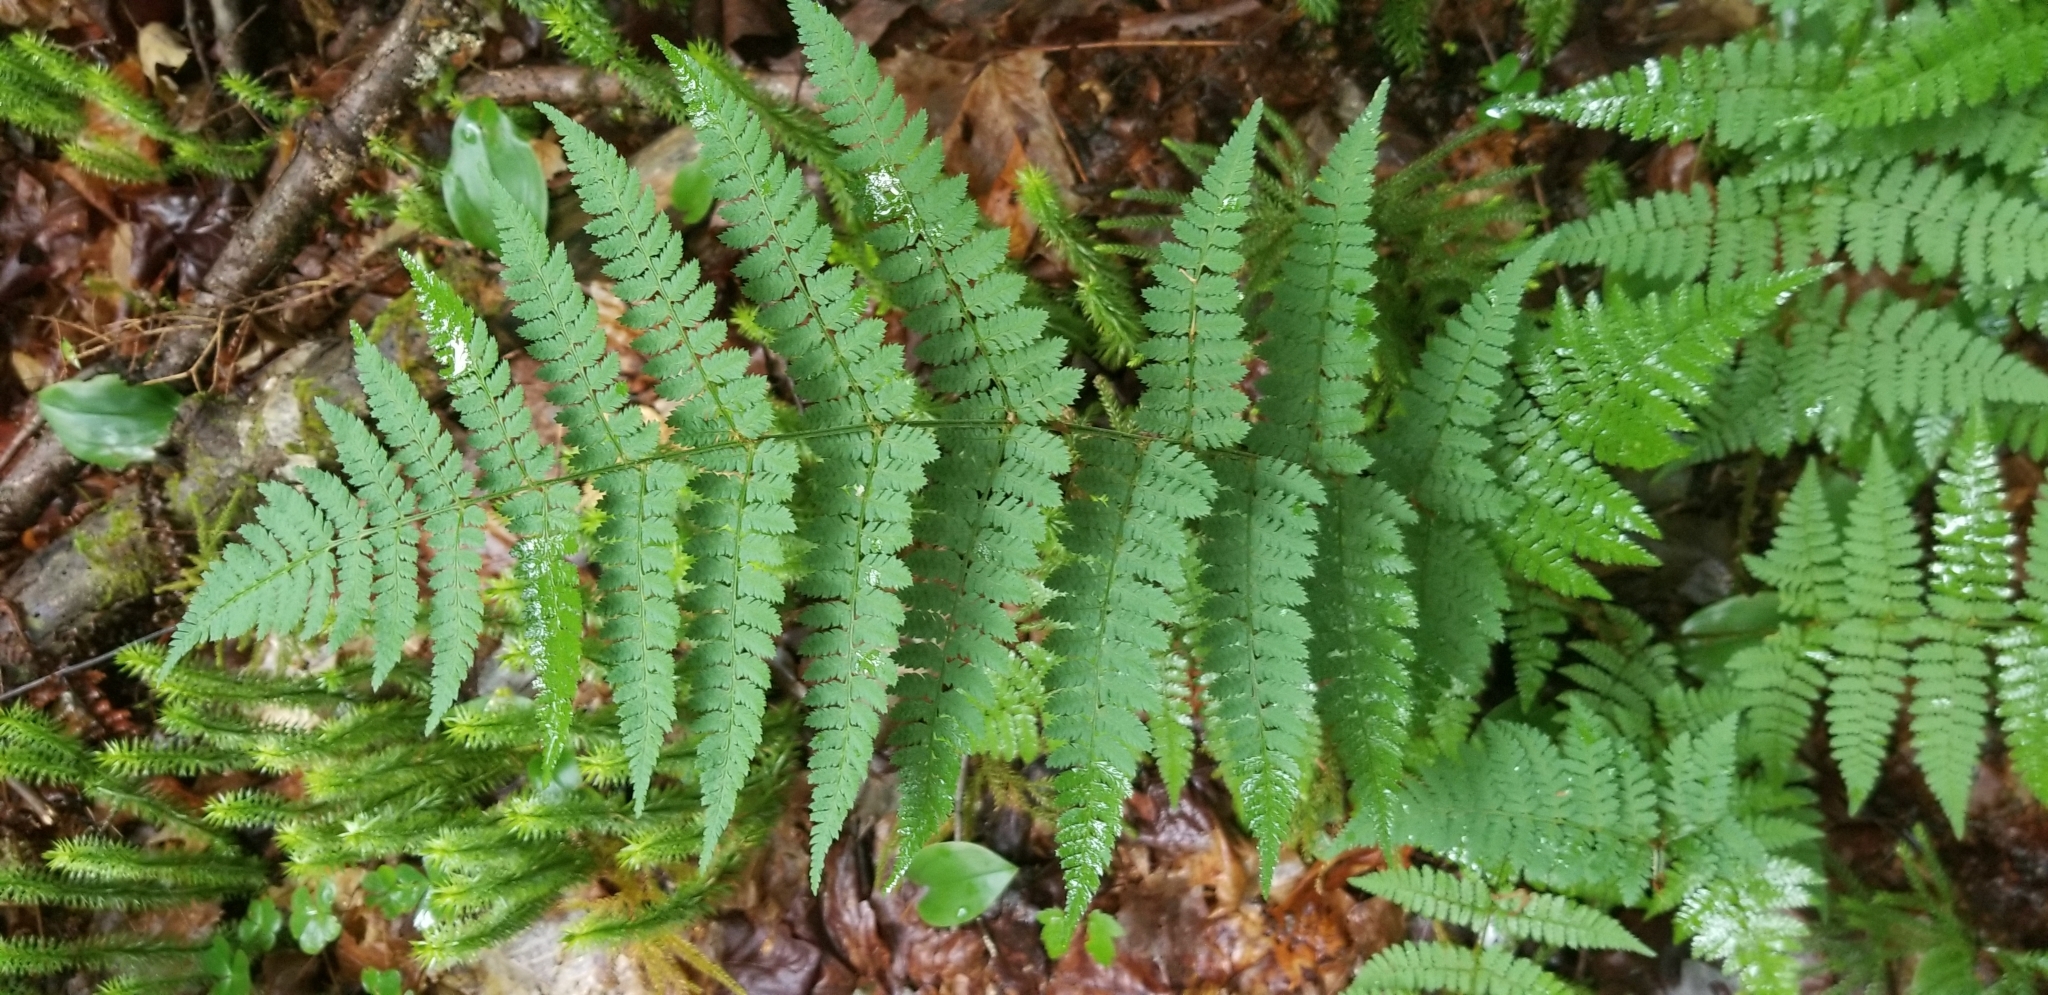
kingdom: Plantae
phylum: Tracheophyta
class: Polypodiopsida
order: Polypodiales
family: Dryopteridaceae
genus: Dryopteris
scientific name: Dryopteris intermedia
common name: Evergreen wood fern
